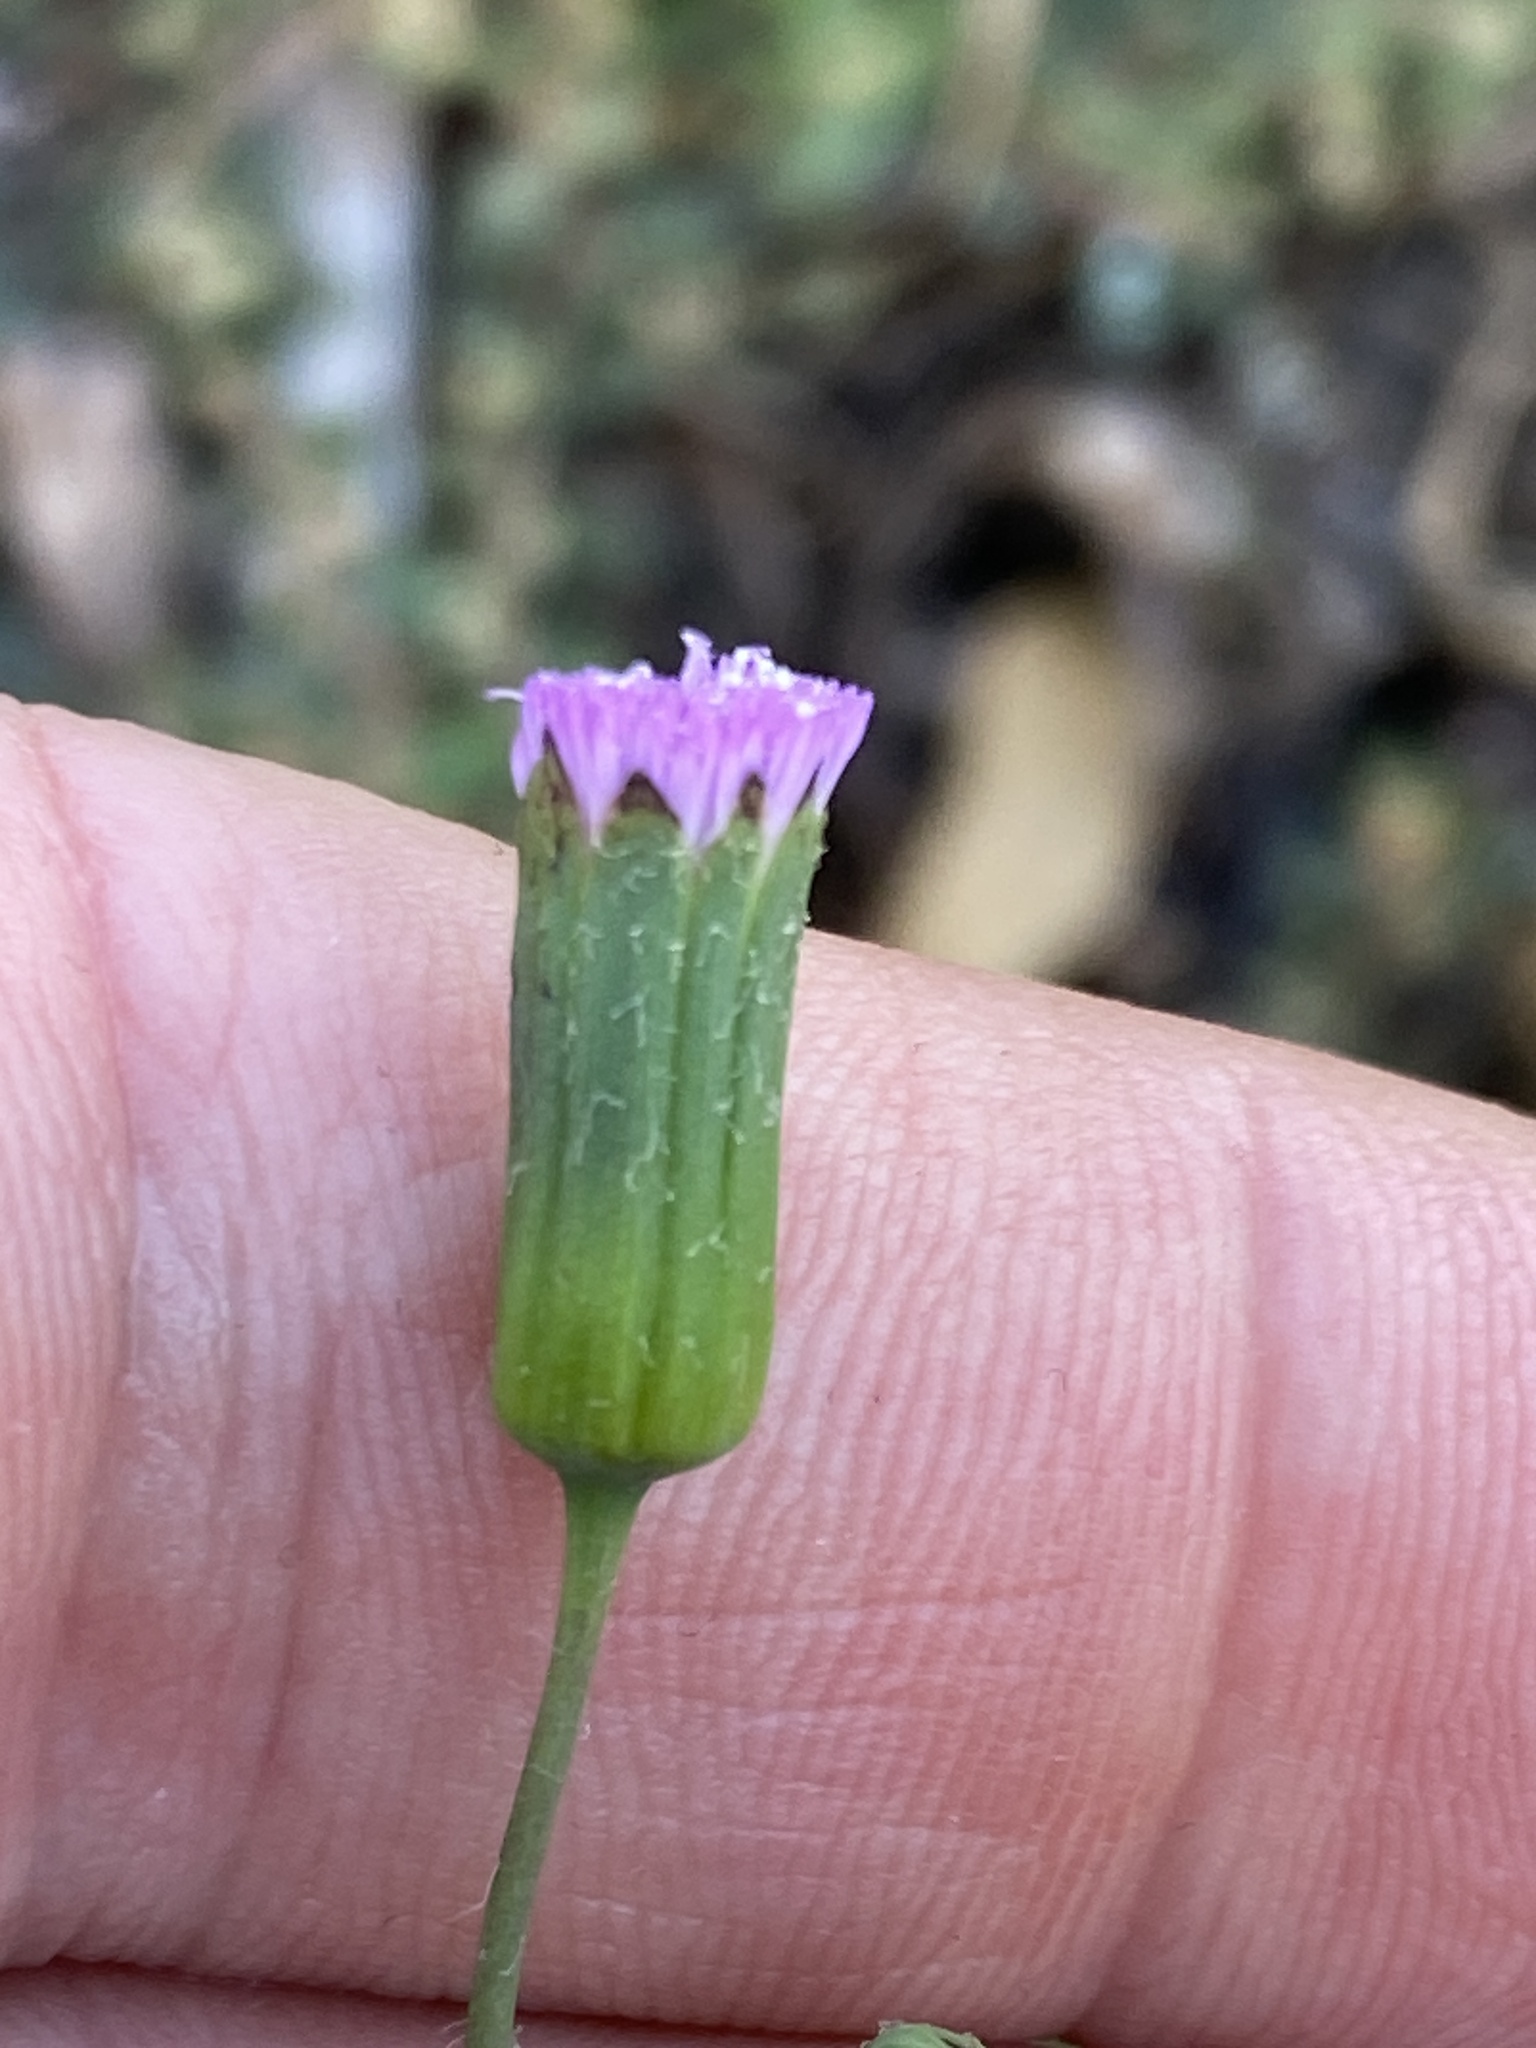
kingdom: Plantae
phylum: Tracheophyta
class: Magnoliopsida
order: Asterales
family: Asteraceae
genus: Emilia
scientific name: Emilia javanica
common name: Tassel-flower
